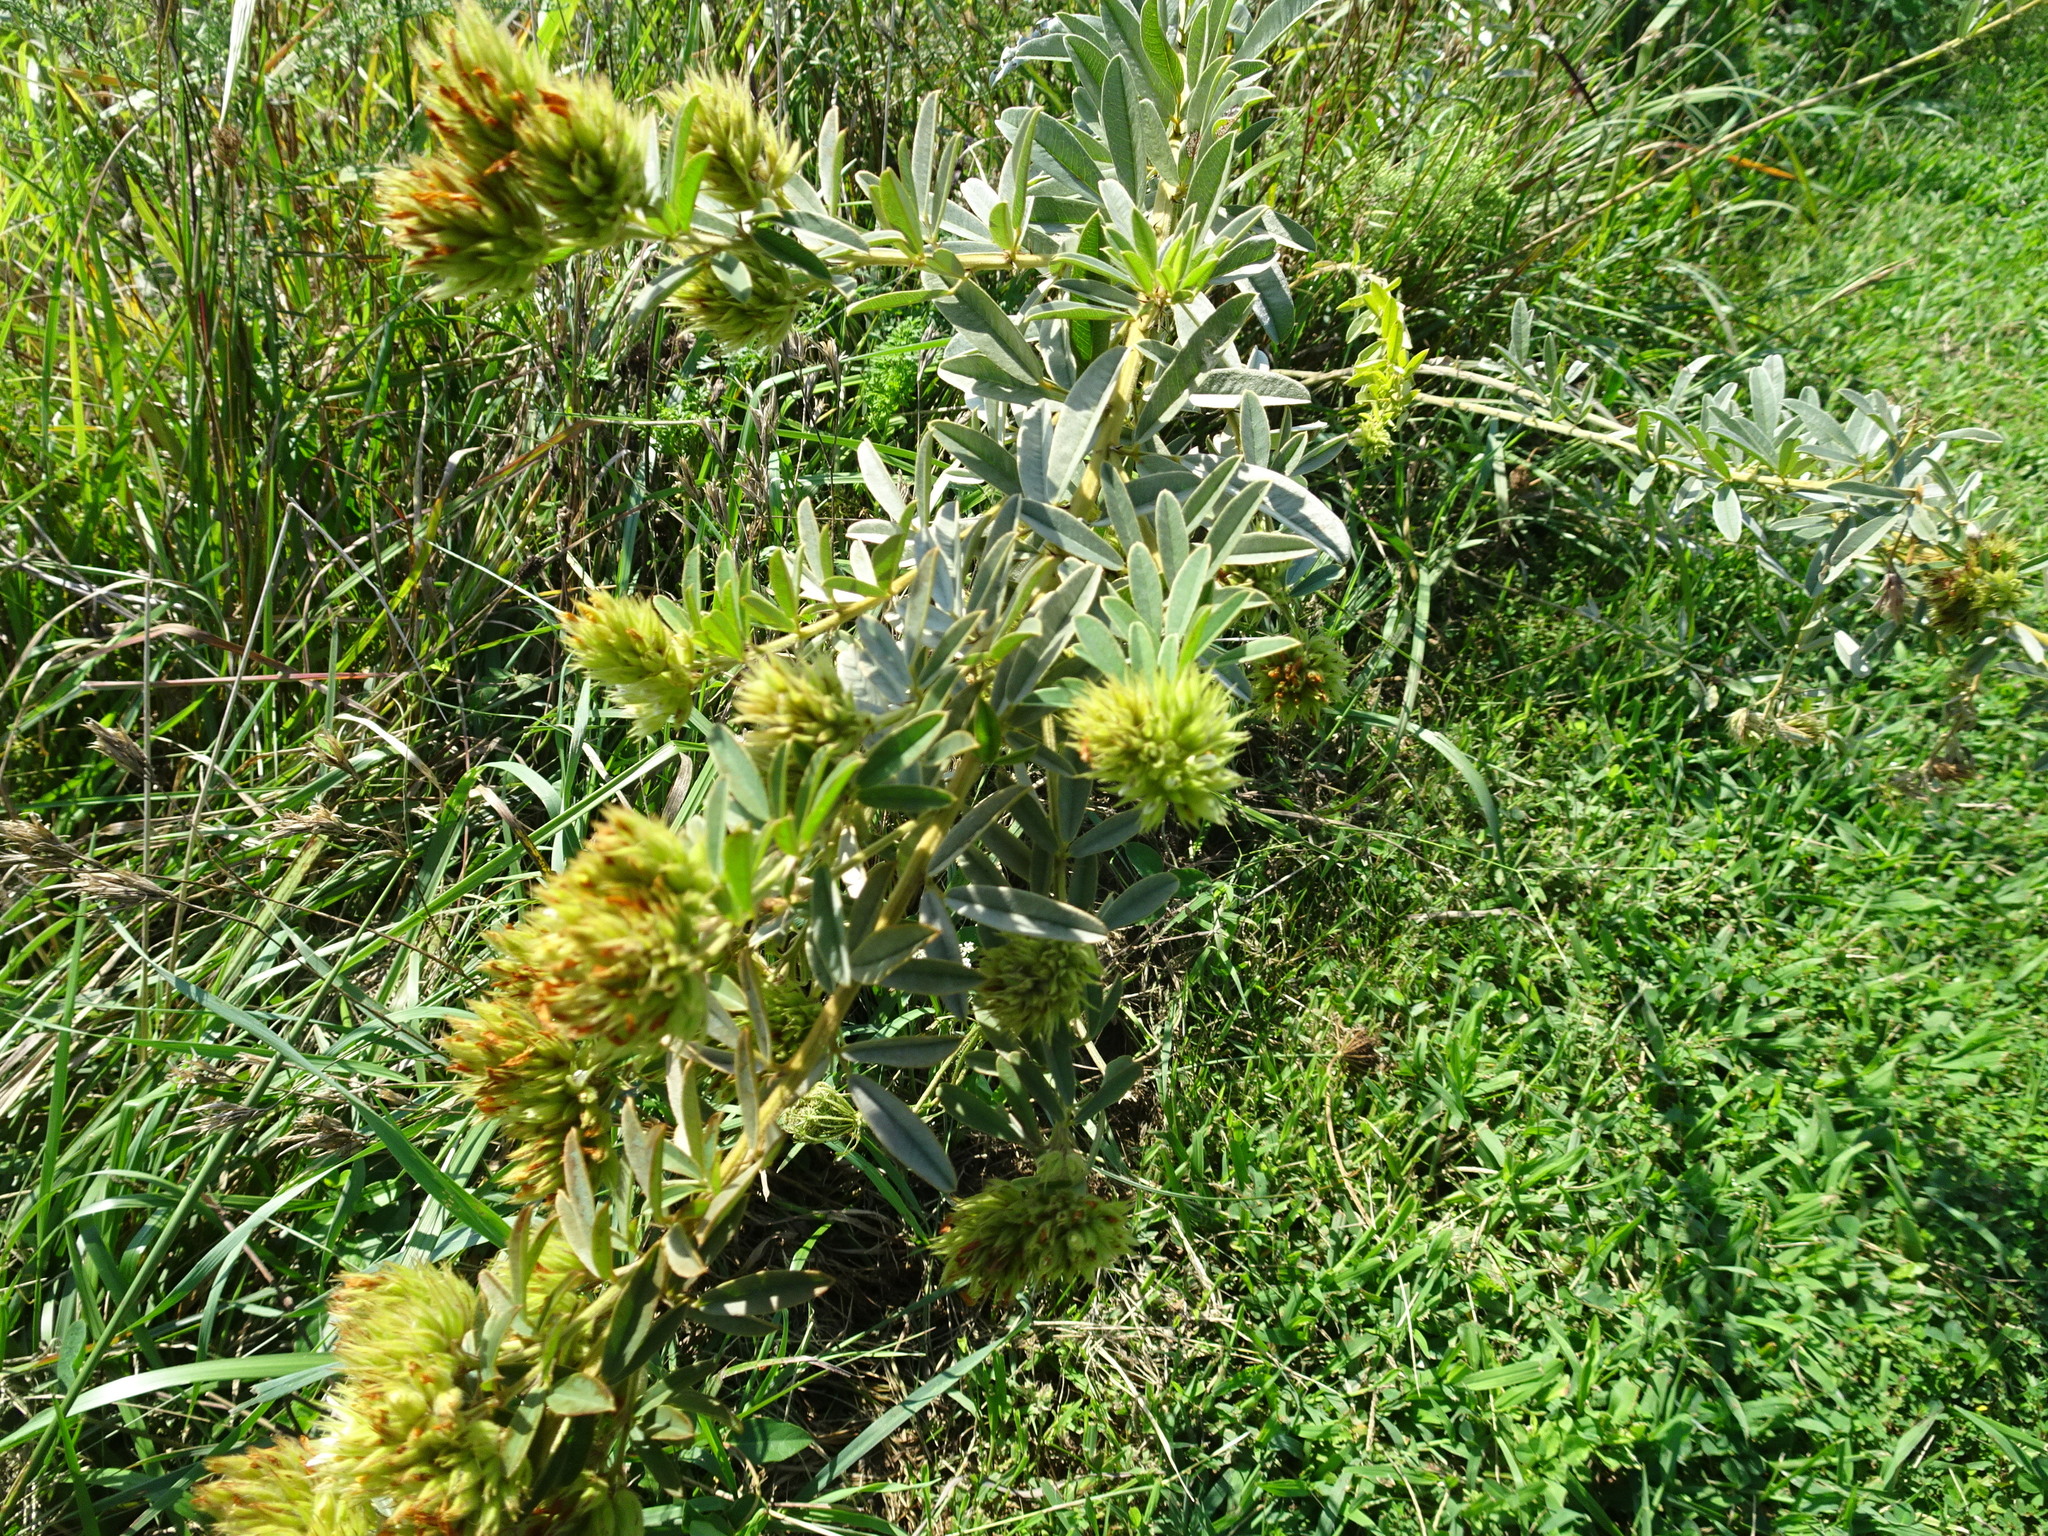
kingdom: Plantae
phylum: Tracheophyta
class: Magnoliopsida
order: Fabales
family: Fabaceae
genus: Lespedeza
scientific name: Lespedeza capitata
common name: Dusty clover
